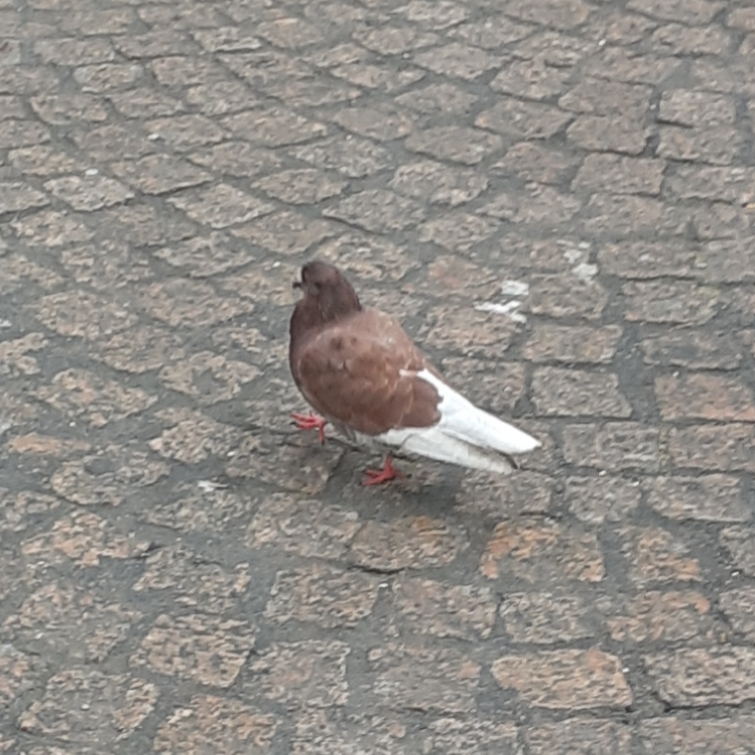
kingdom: Animalia
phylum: Chordata
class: Aves
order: Columbiformes
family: Columbidae
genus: Columba
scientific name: Columba livia
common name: Rock pigeon
